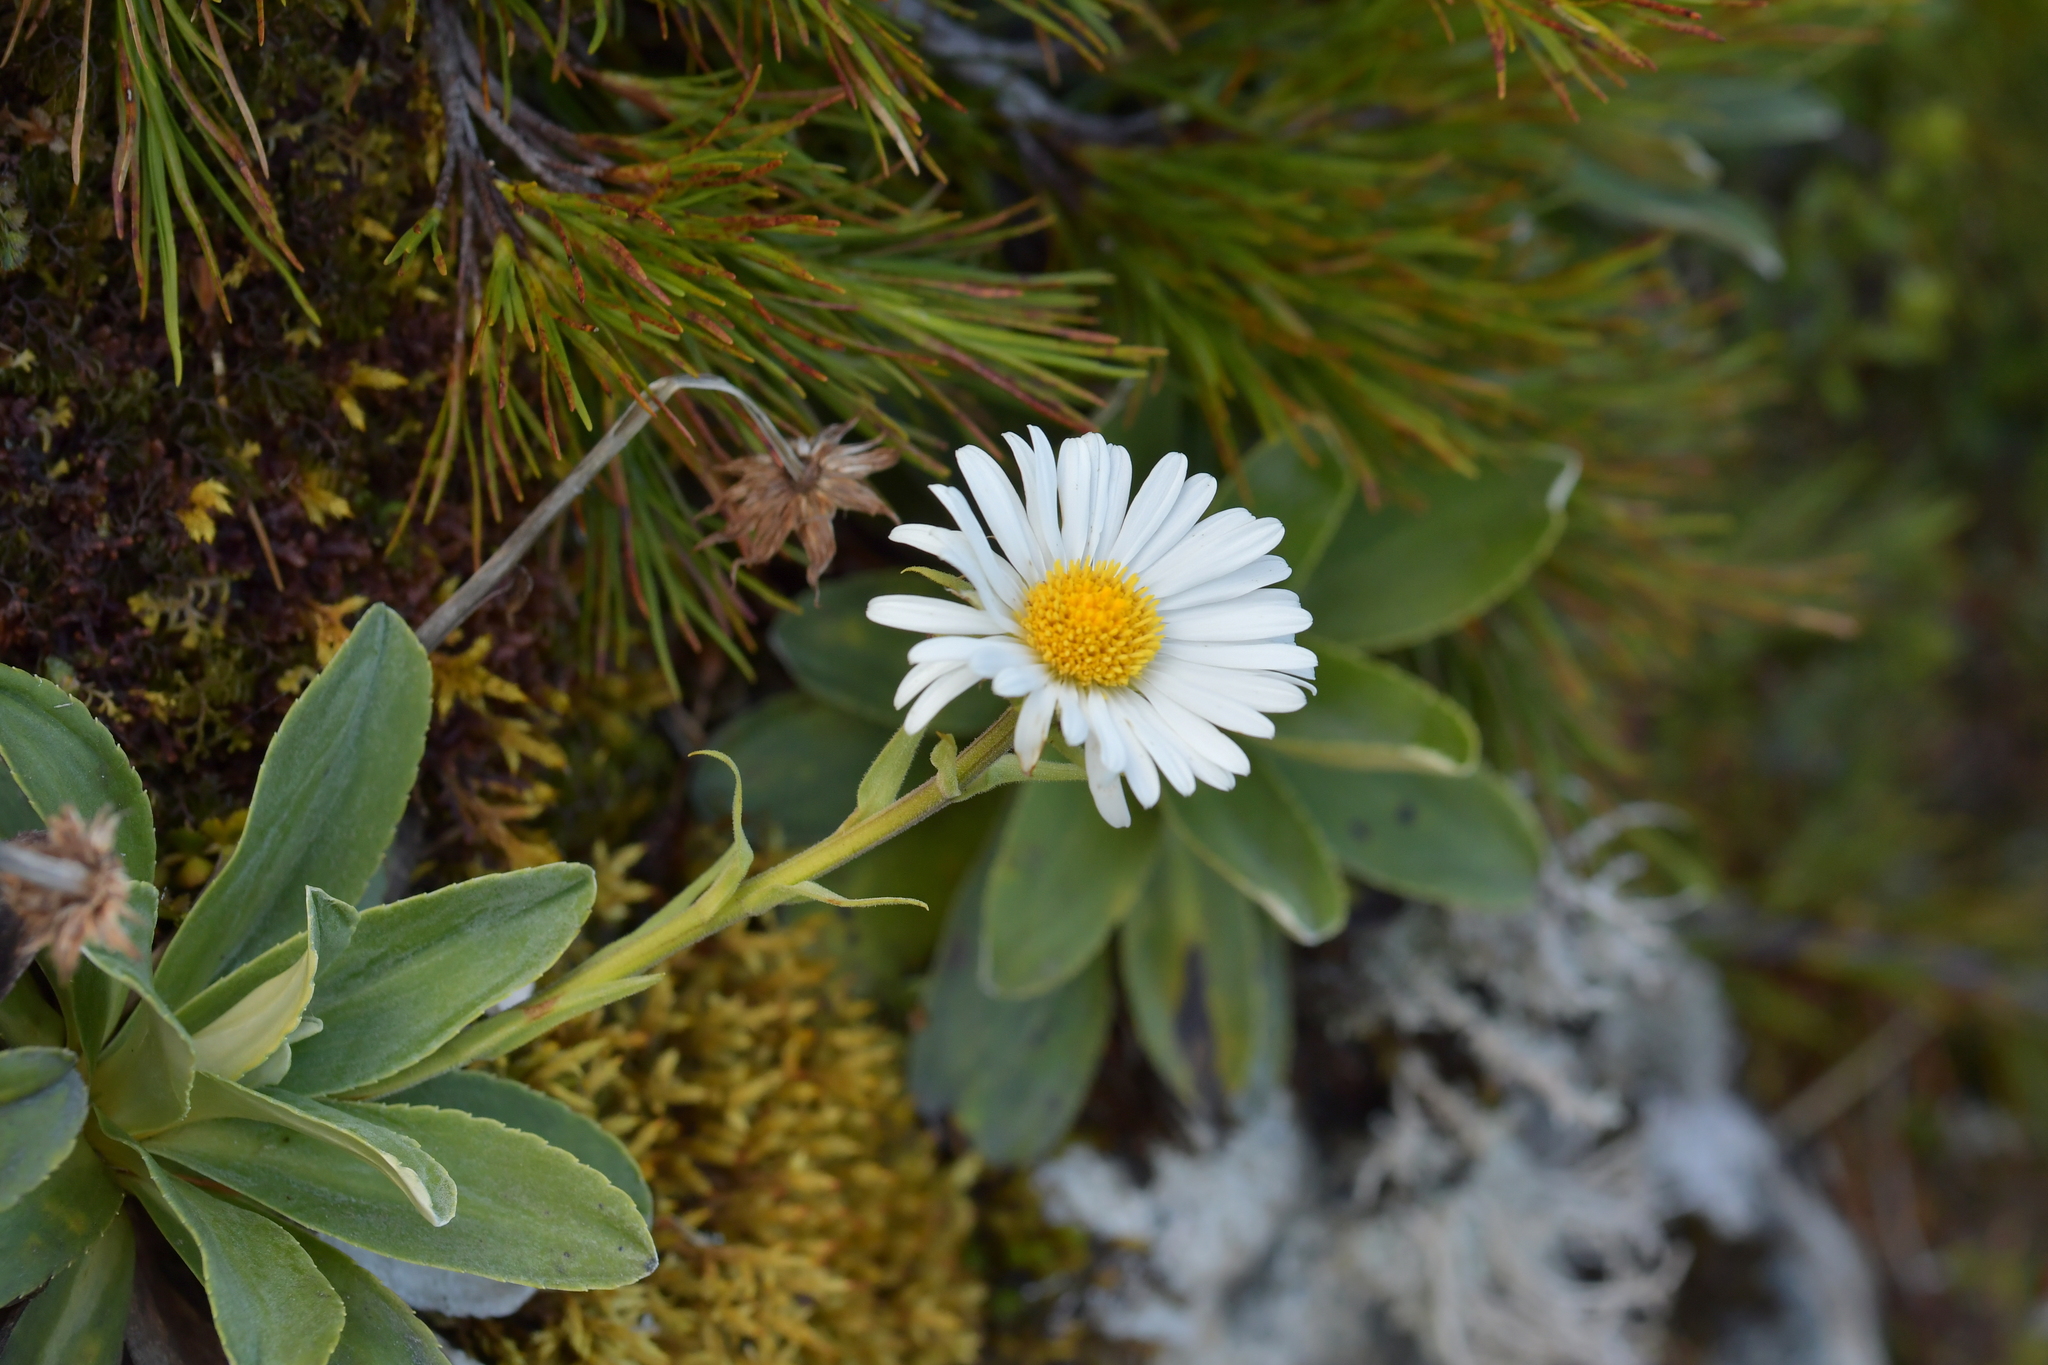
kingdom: Plantae
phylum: Tracheophyta
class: Magnoliopsida
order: Asterales
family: Asteraceae
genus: Celmisia
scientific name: Celmisia hieraciifolia
